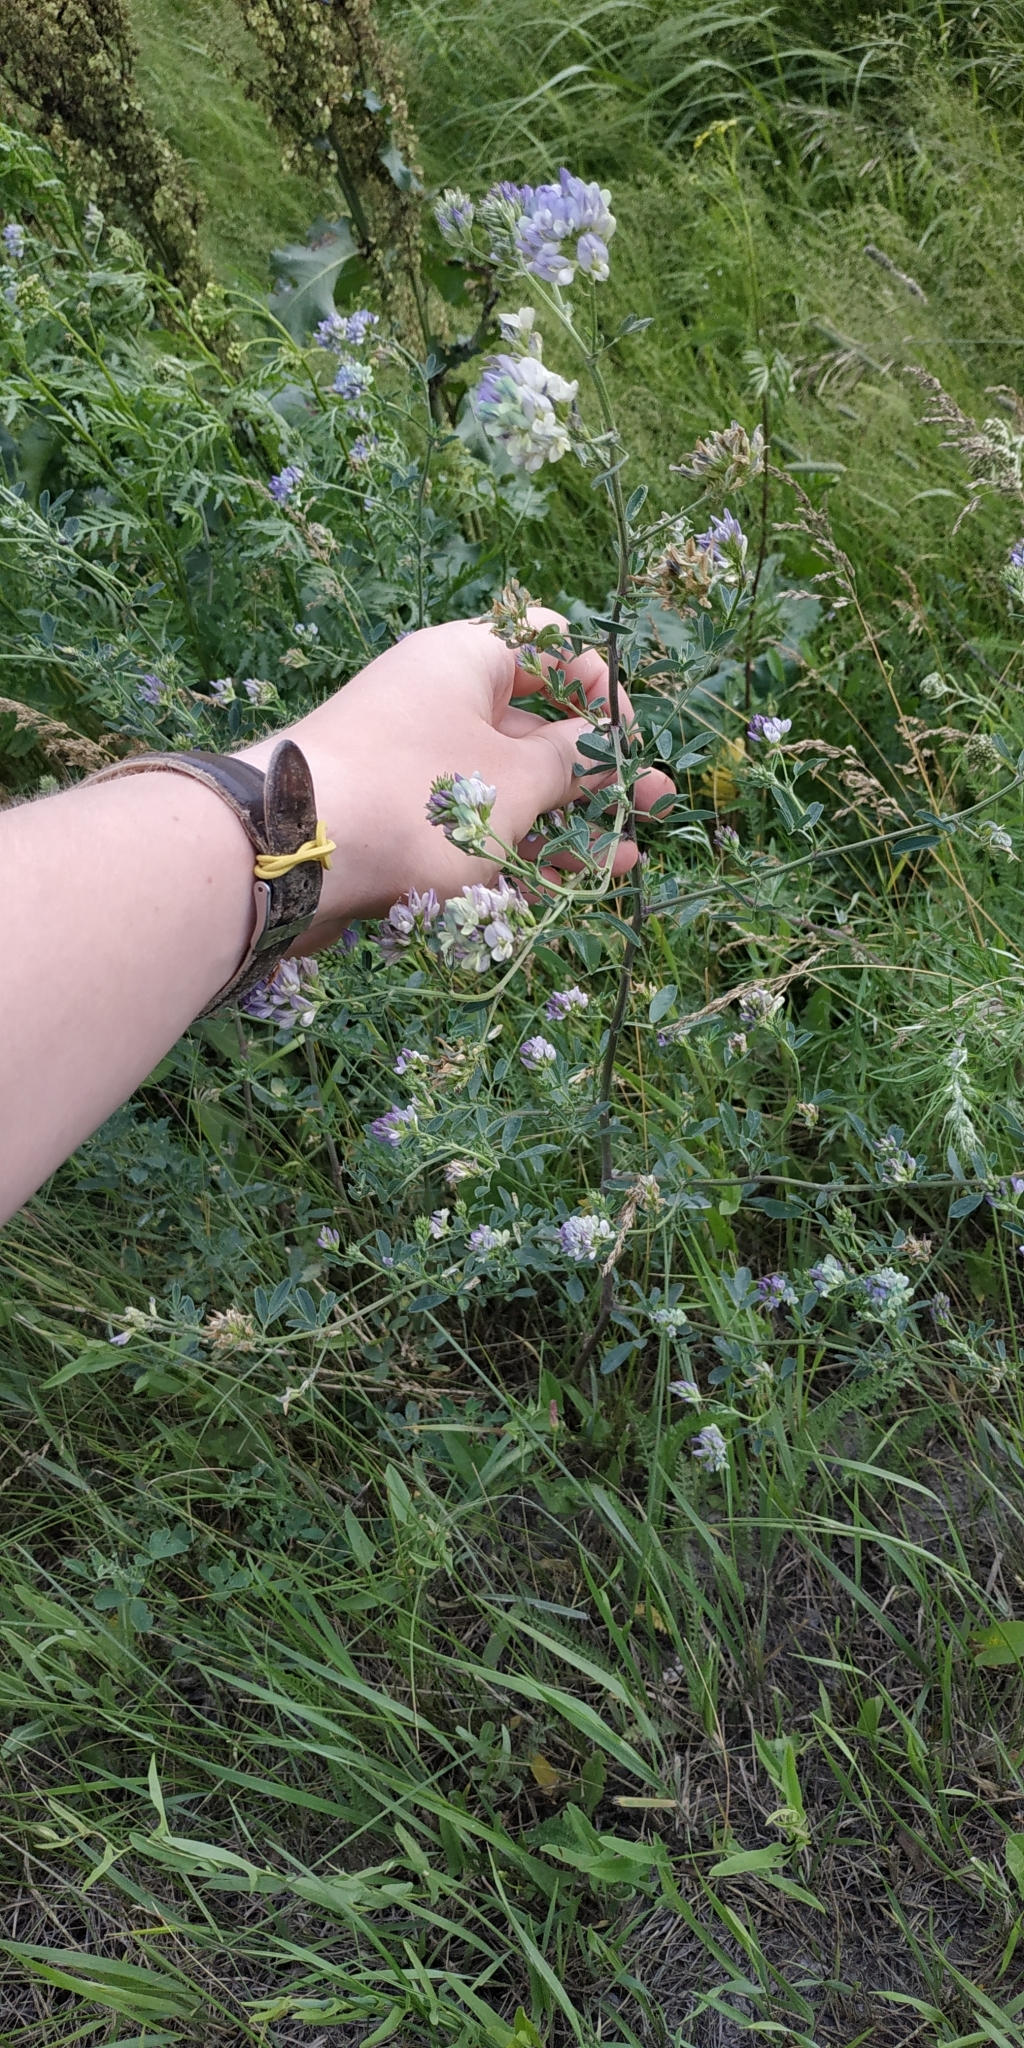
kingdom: Plantae
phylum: Tracheophyta
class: Magnoliopsida
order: Fabales
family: Fabaceae
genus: Medicago
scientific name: Medicago varia
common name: Sand lucerne
